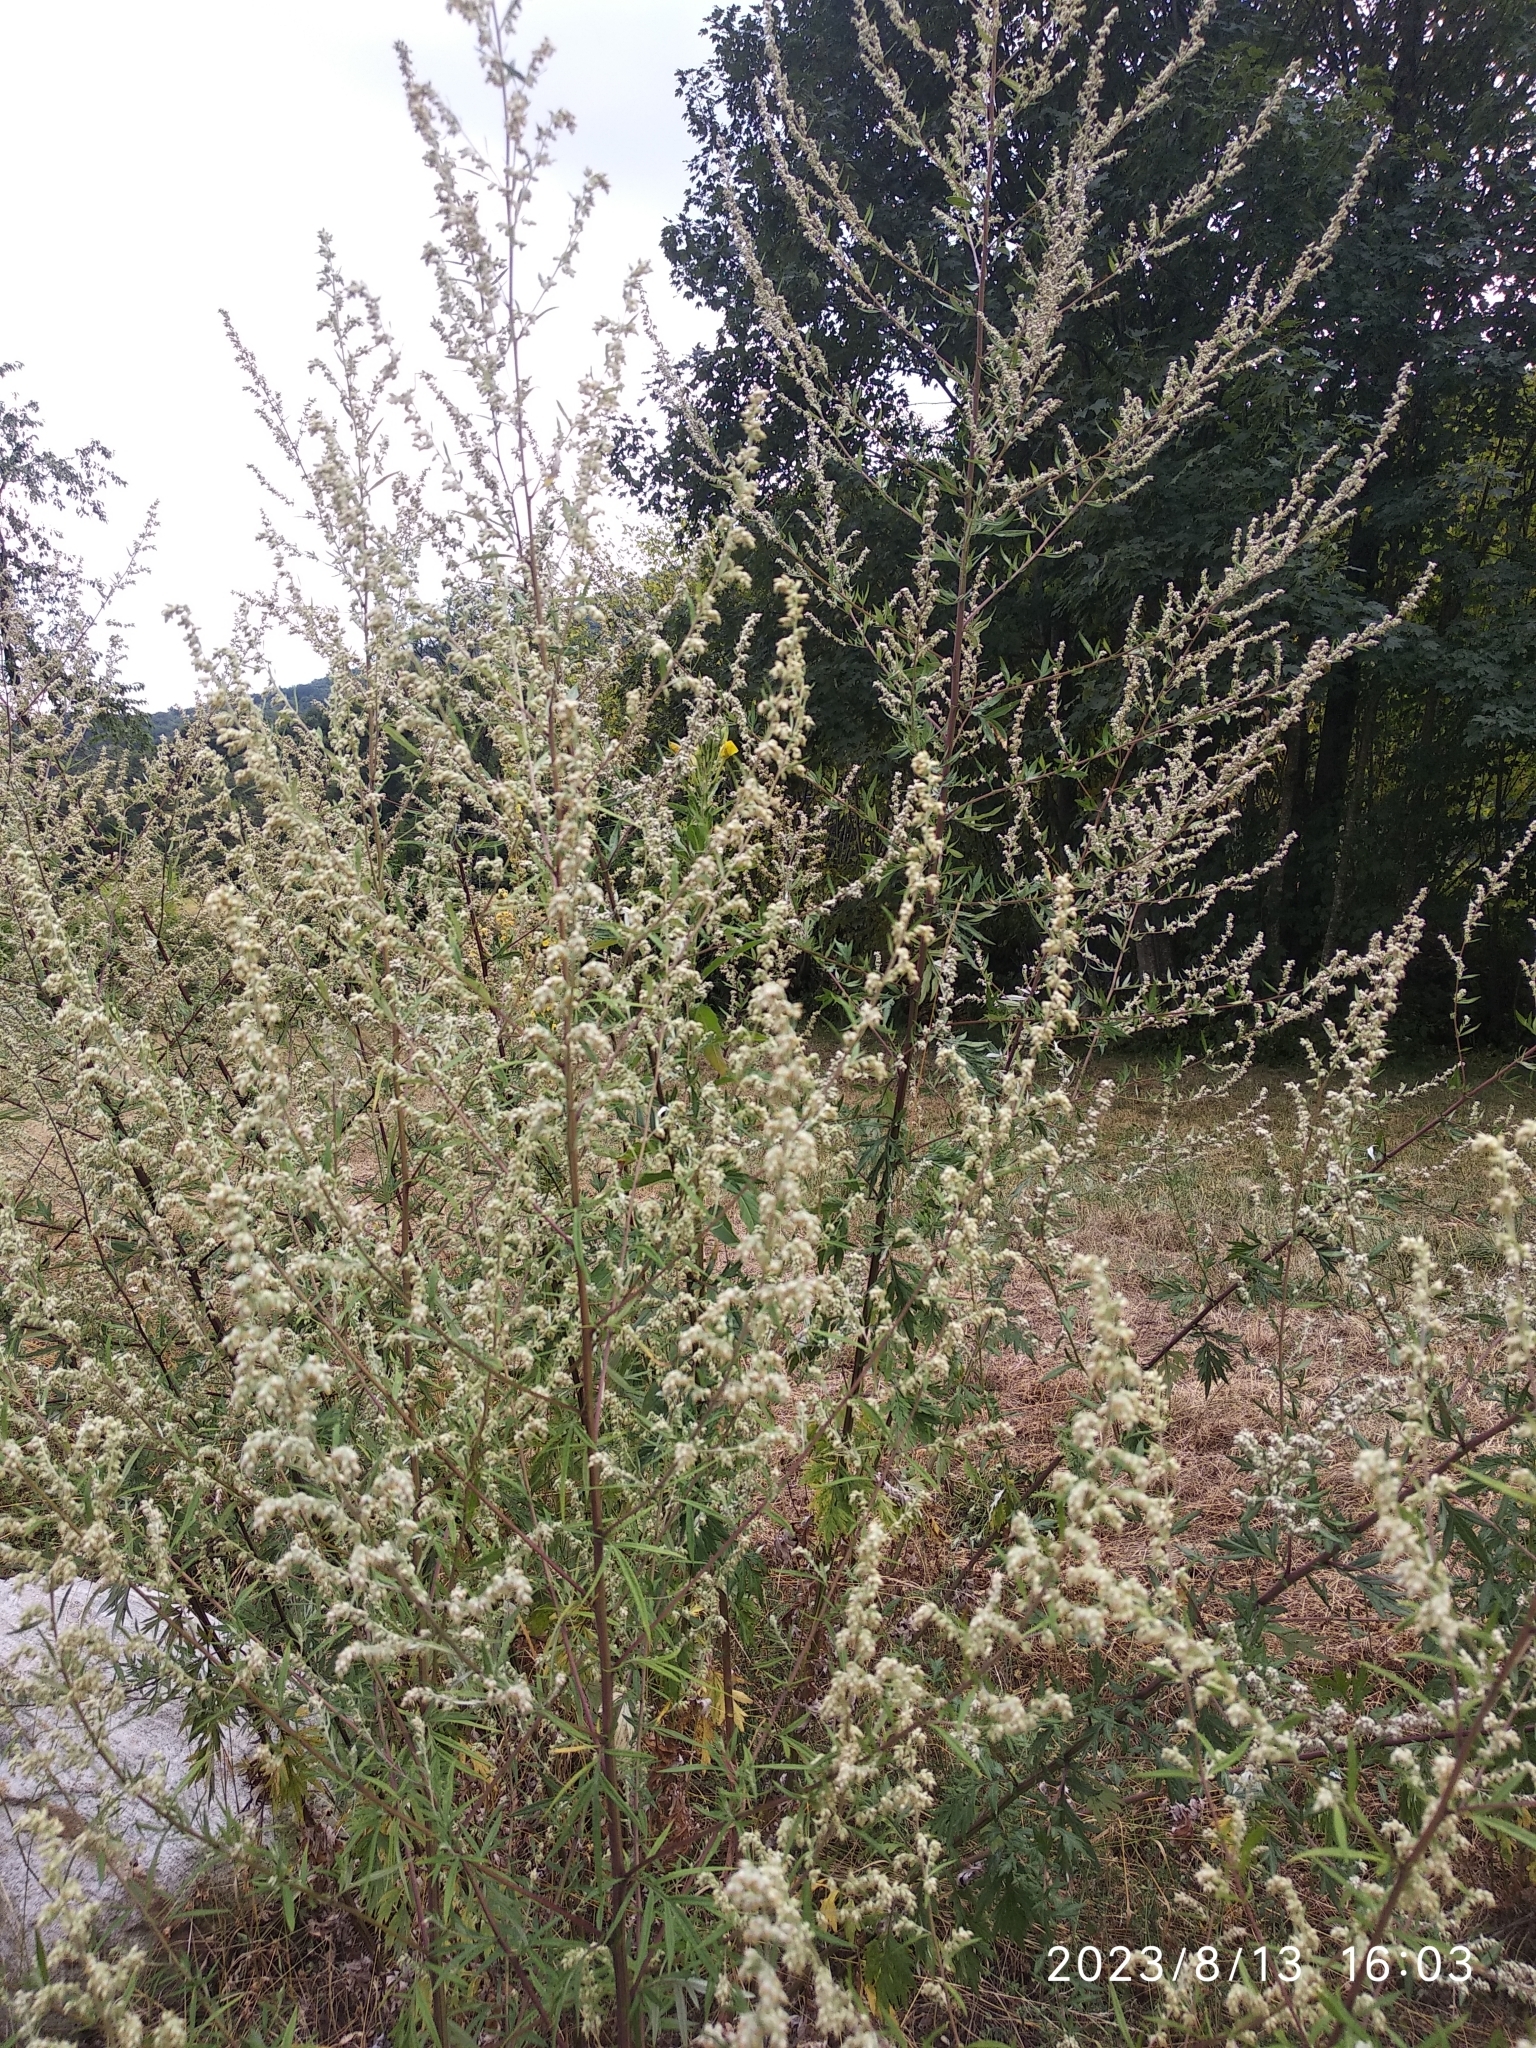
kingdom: Plantae
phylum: Tracheophyta
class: Magnoliopsida
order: Asterales
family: Asteraceae
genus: Artemisia
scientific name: Artemisia vulgaris
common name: Mugwort
